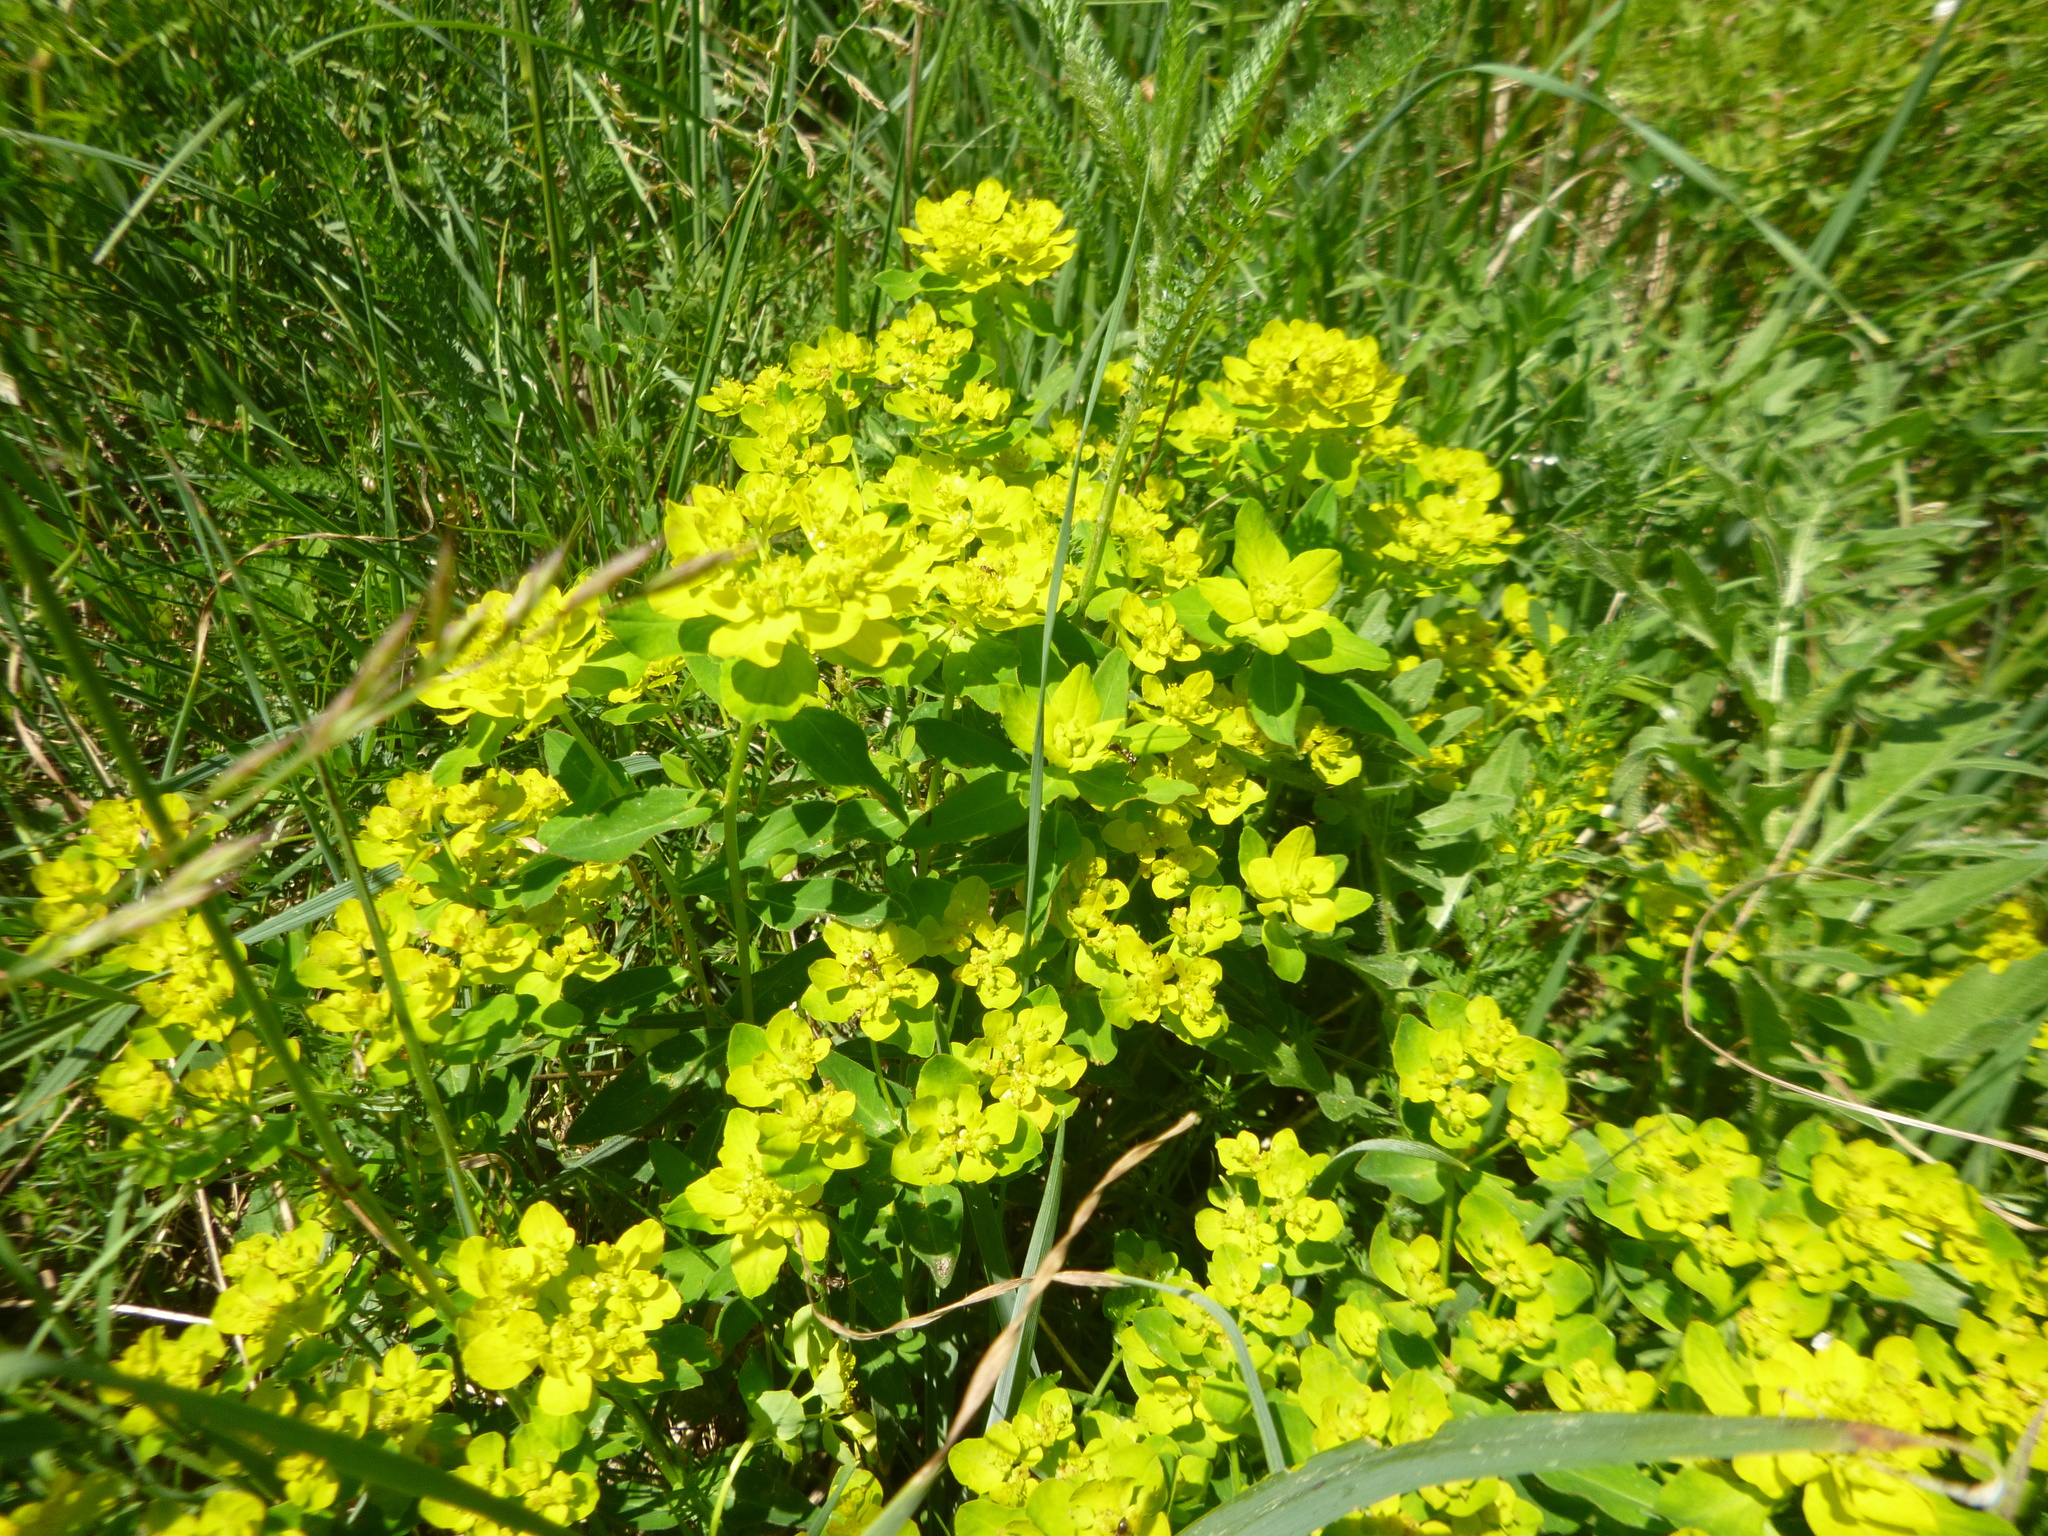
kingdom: Plantae
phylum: Tracheophyta
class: Magnoliopsida
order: Malpighiales
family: Euphorbiaceae
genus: Euphorbia
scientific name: Euphorbia verrucosa
